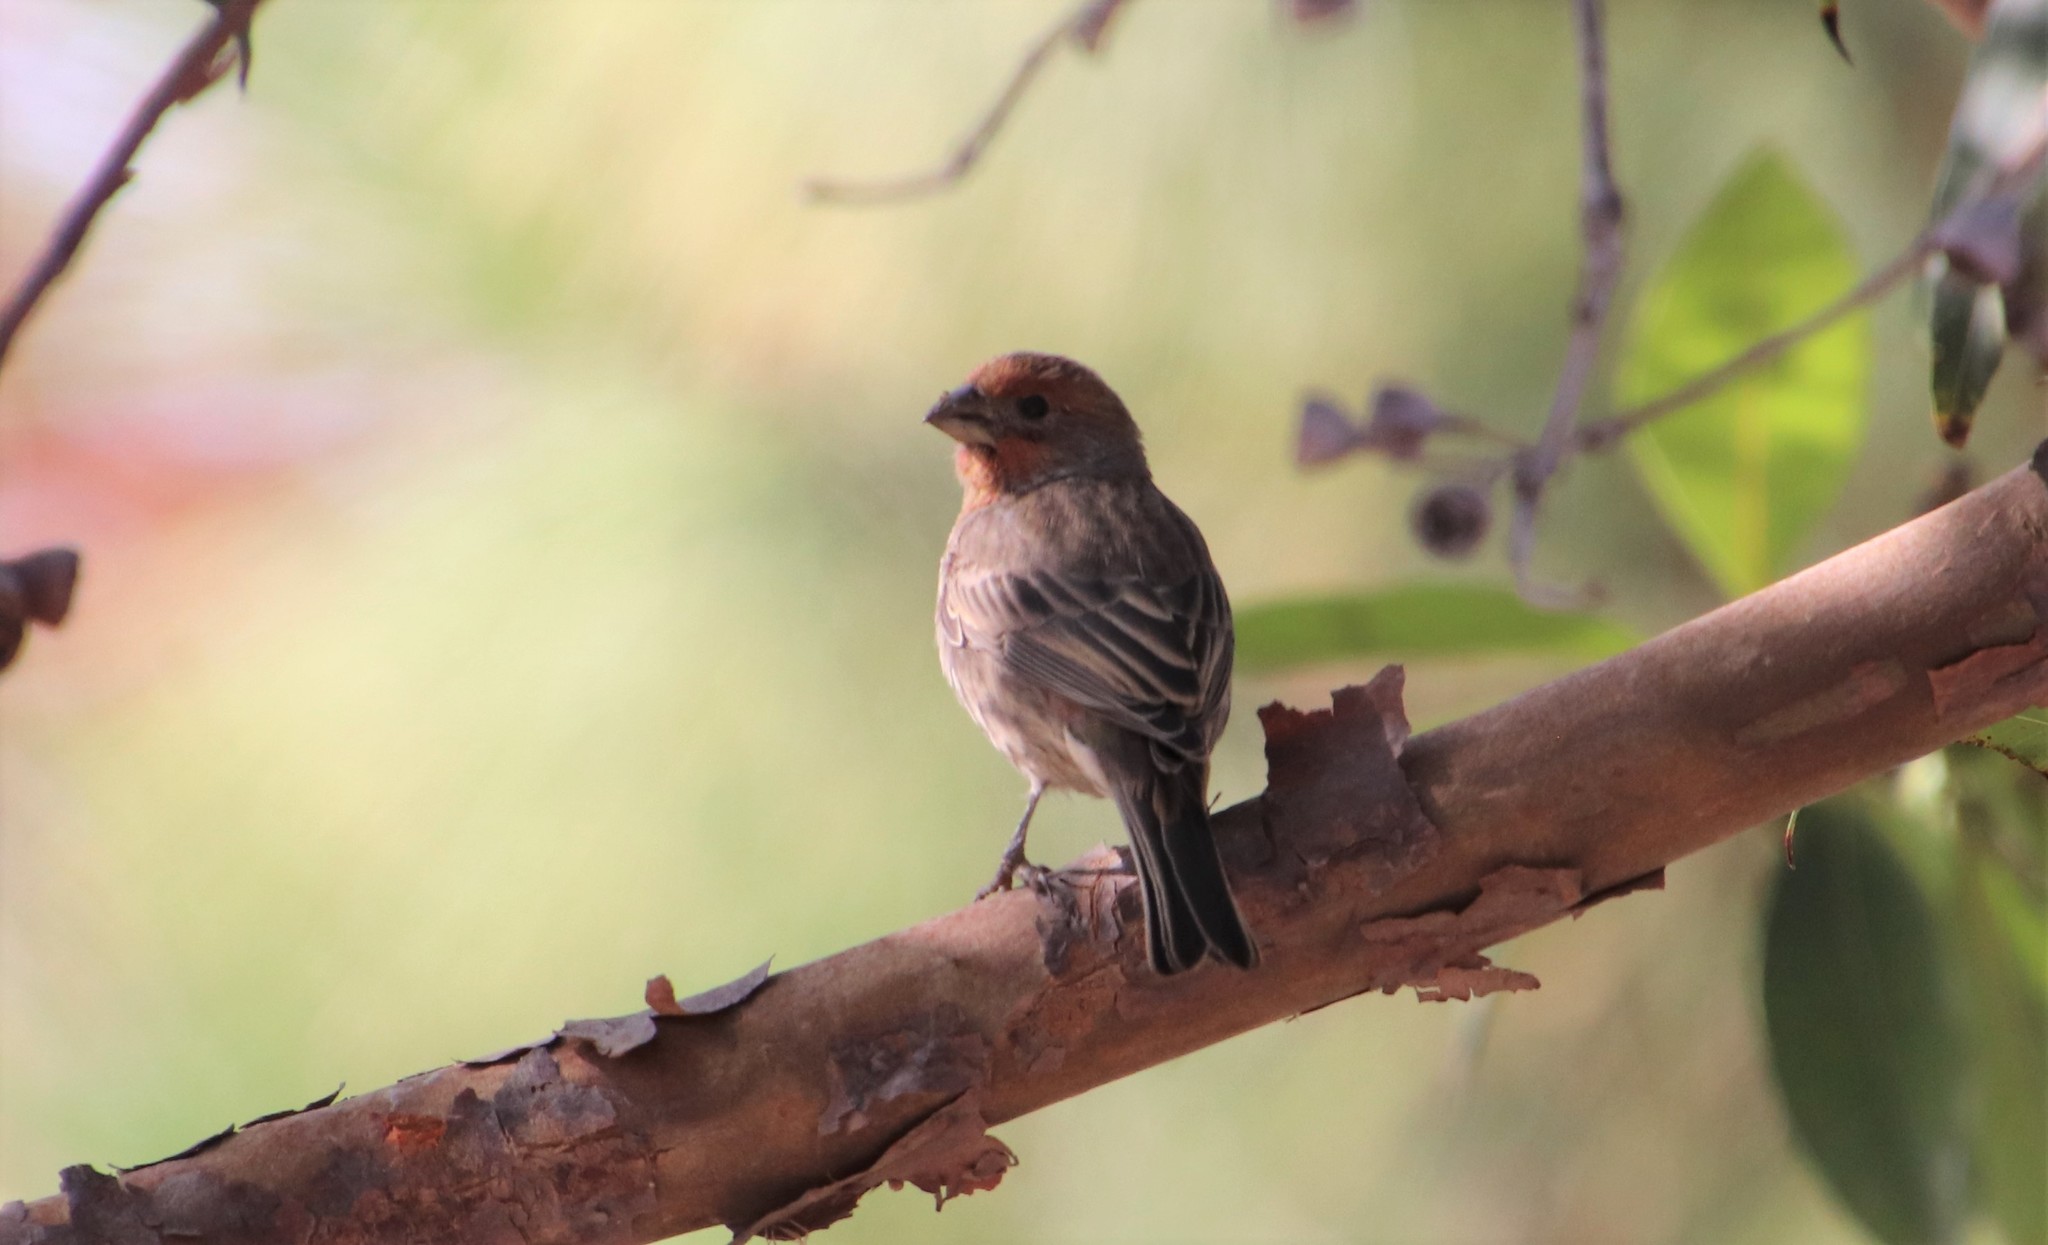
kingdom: Animalia
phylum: Chordata
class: Aves
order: Passeriformes
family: Fringillidae
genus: Haemorhous
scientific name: Haemorhous mexicanus
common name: House finch
